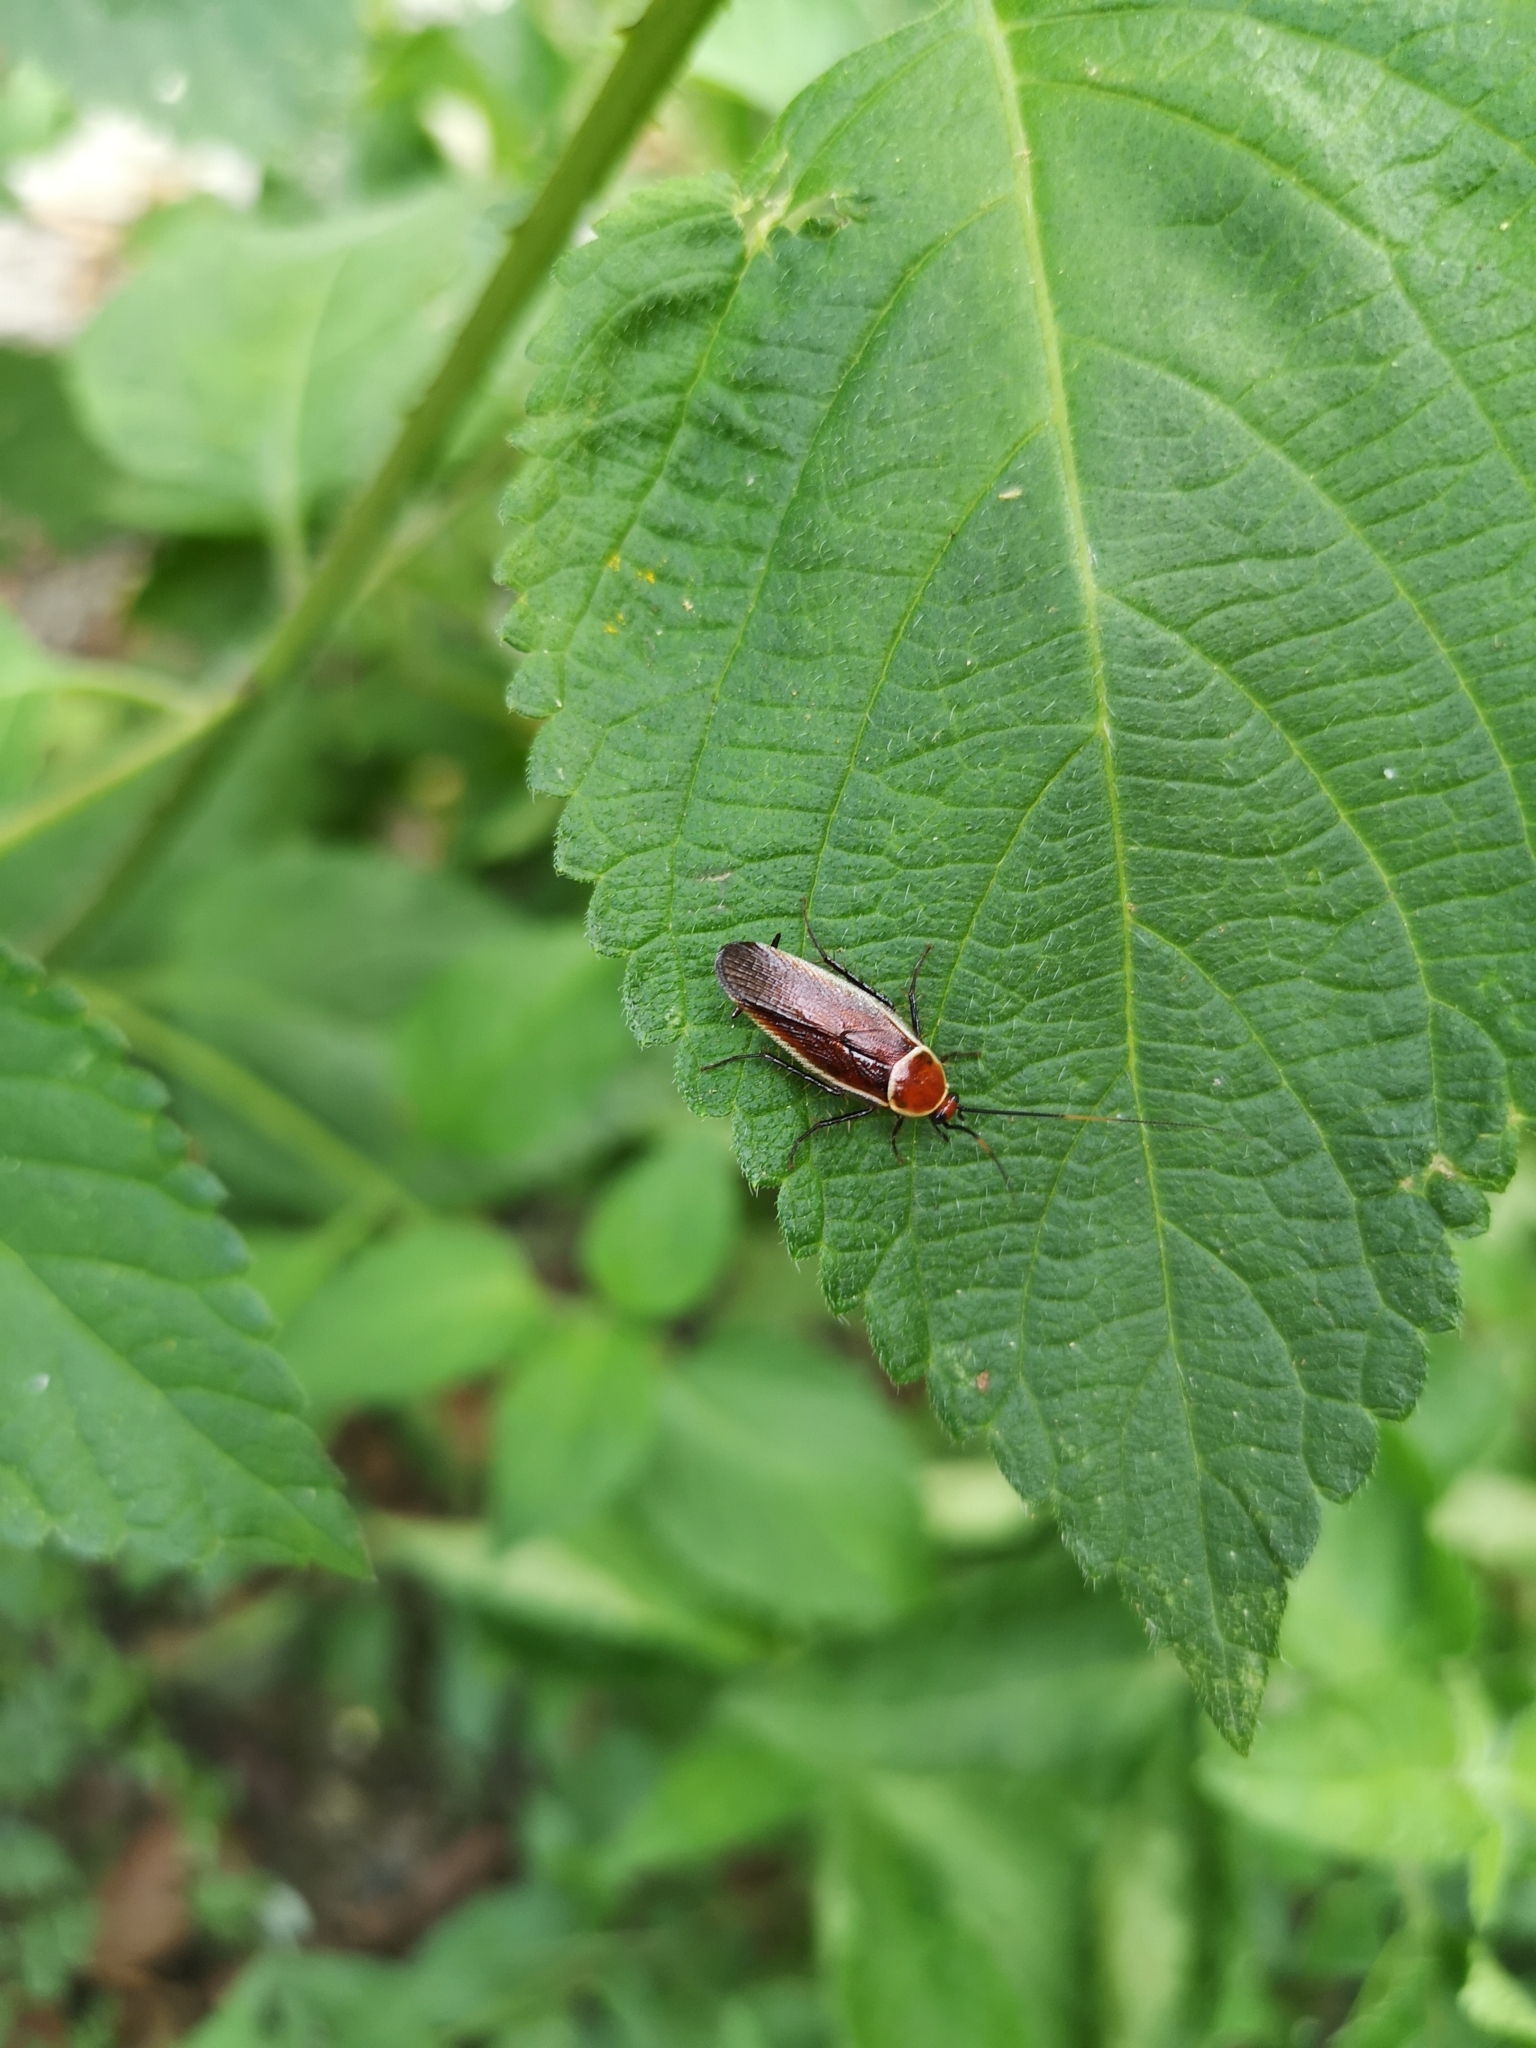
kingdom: Animalia
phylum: Arthropoda
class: Insecta
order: Blattodea
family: Ectobiidae
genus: Pseudomops
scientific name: Pseudomops septentrionalis
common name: Pale-bordered field cockroach
